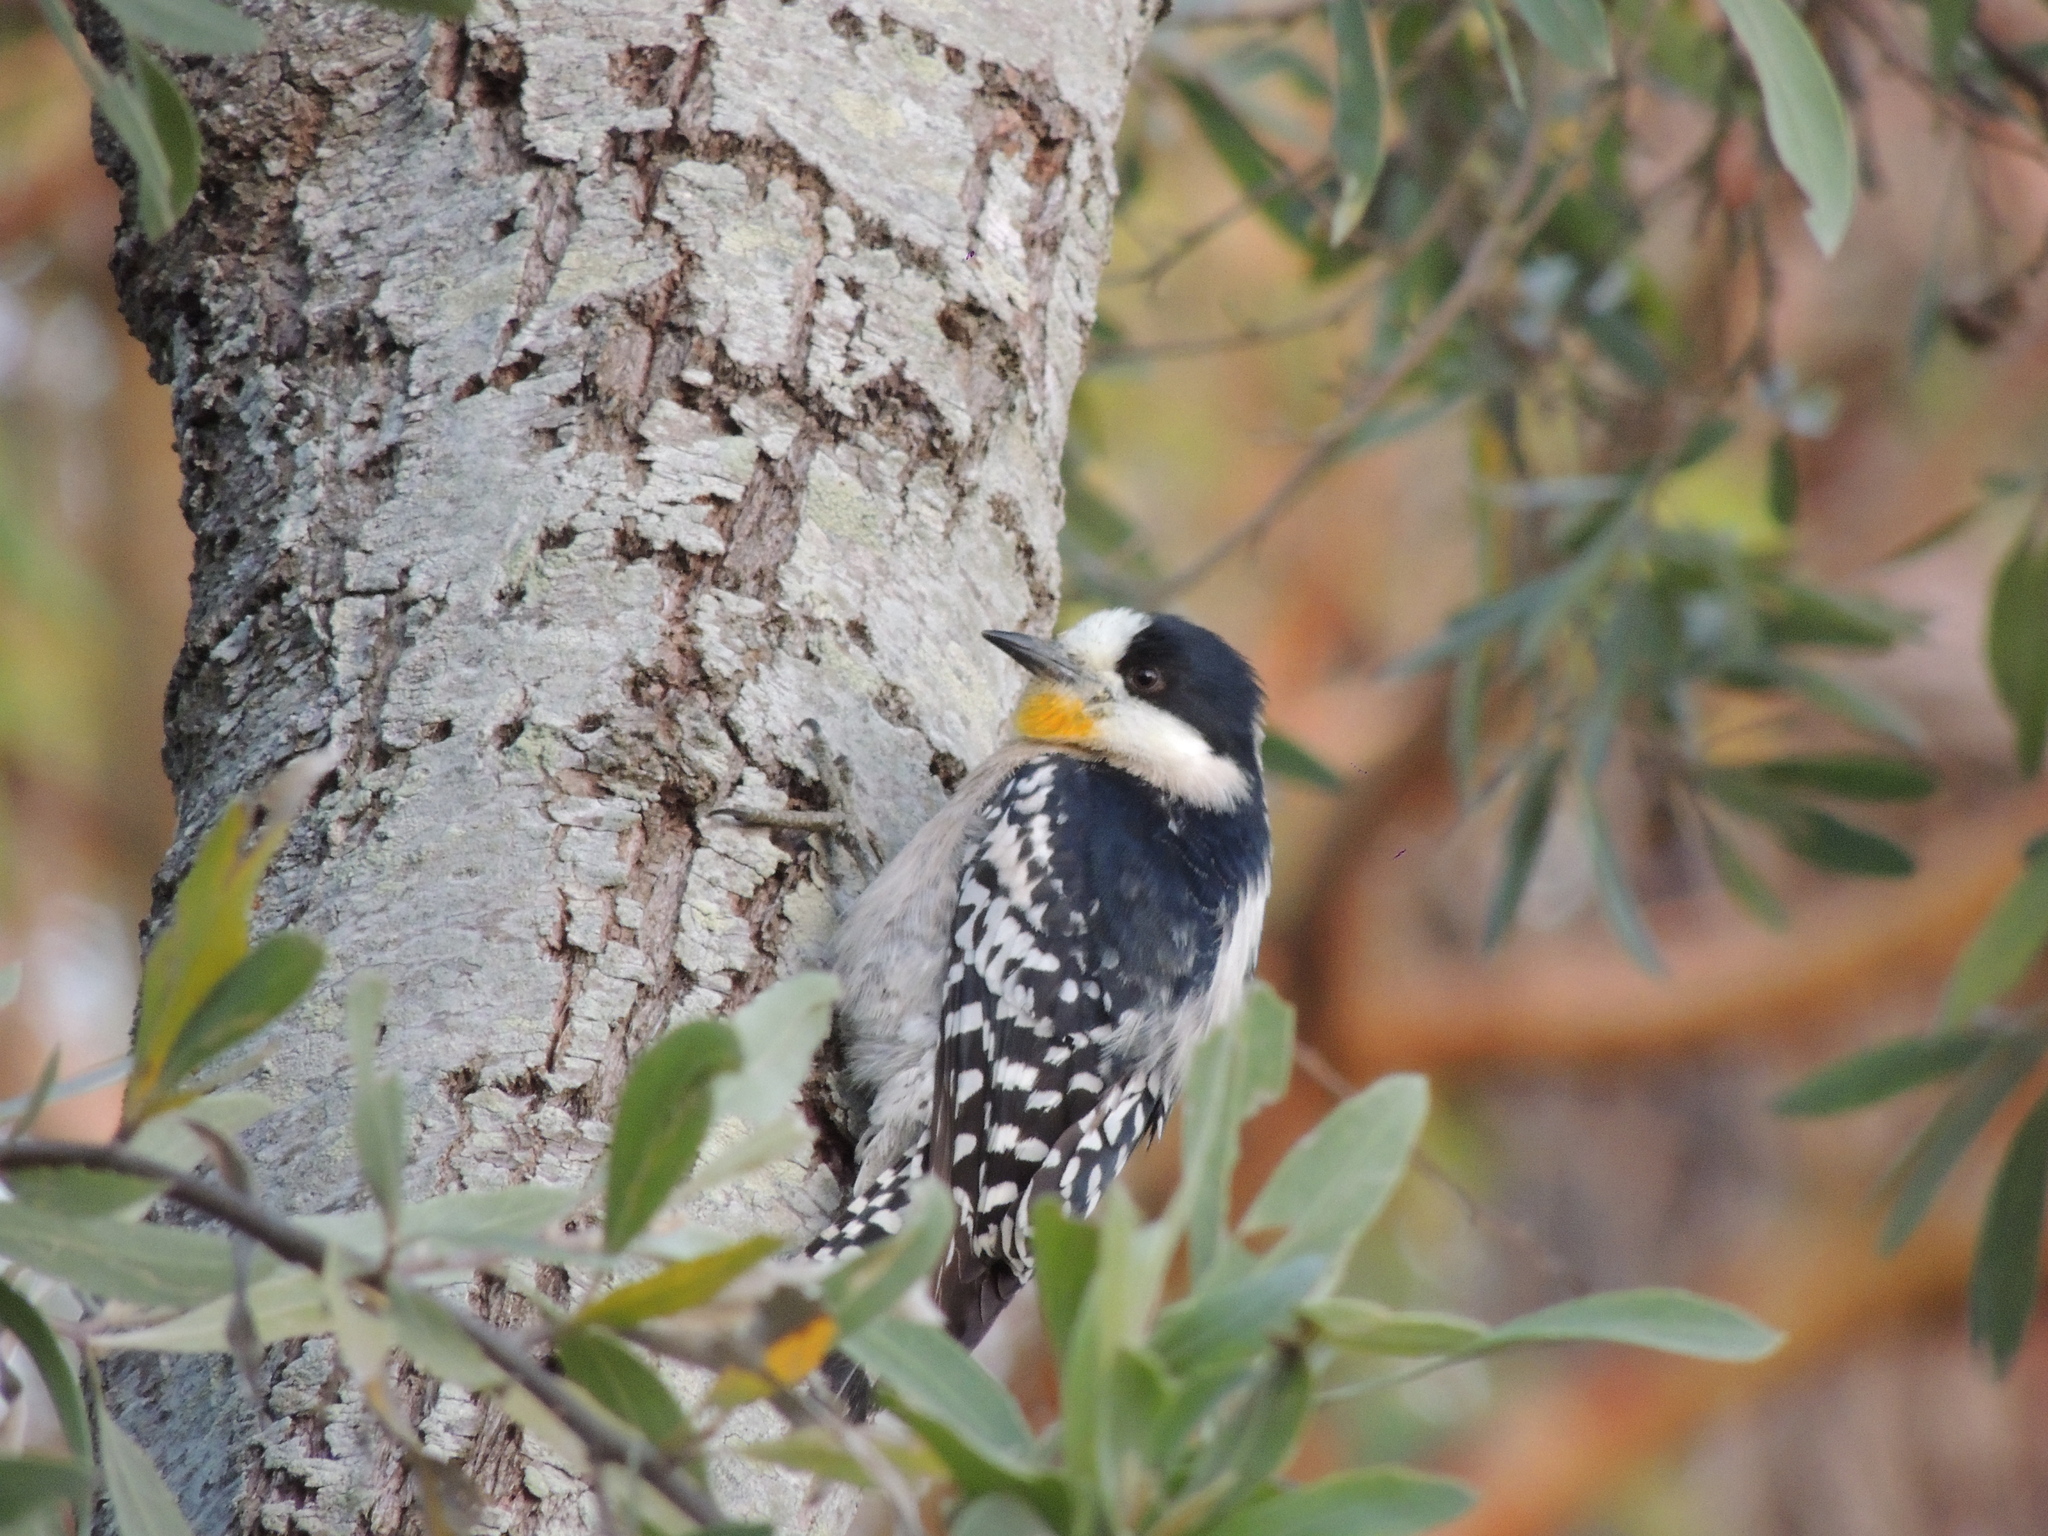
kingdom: Animalia
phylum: Chordata
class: Aves
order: Piciformes
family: Picidae
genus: Melanerpes
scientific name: Melanerpes cactorum
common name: White-fronted woodpecker
